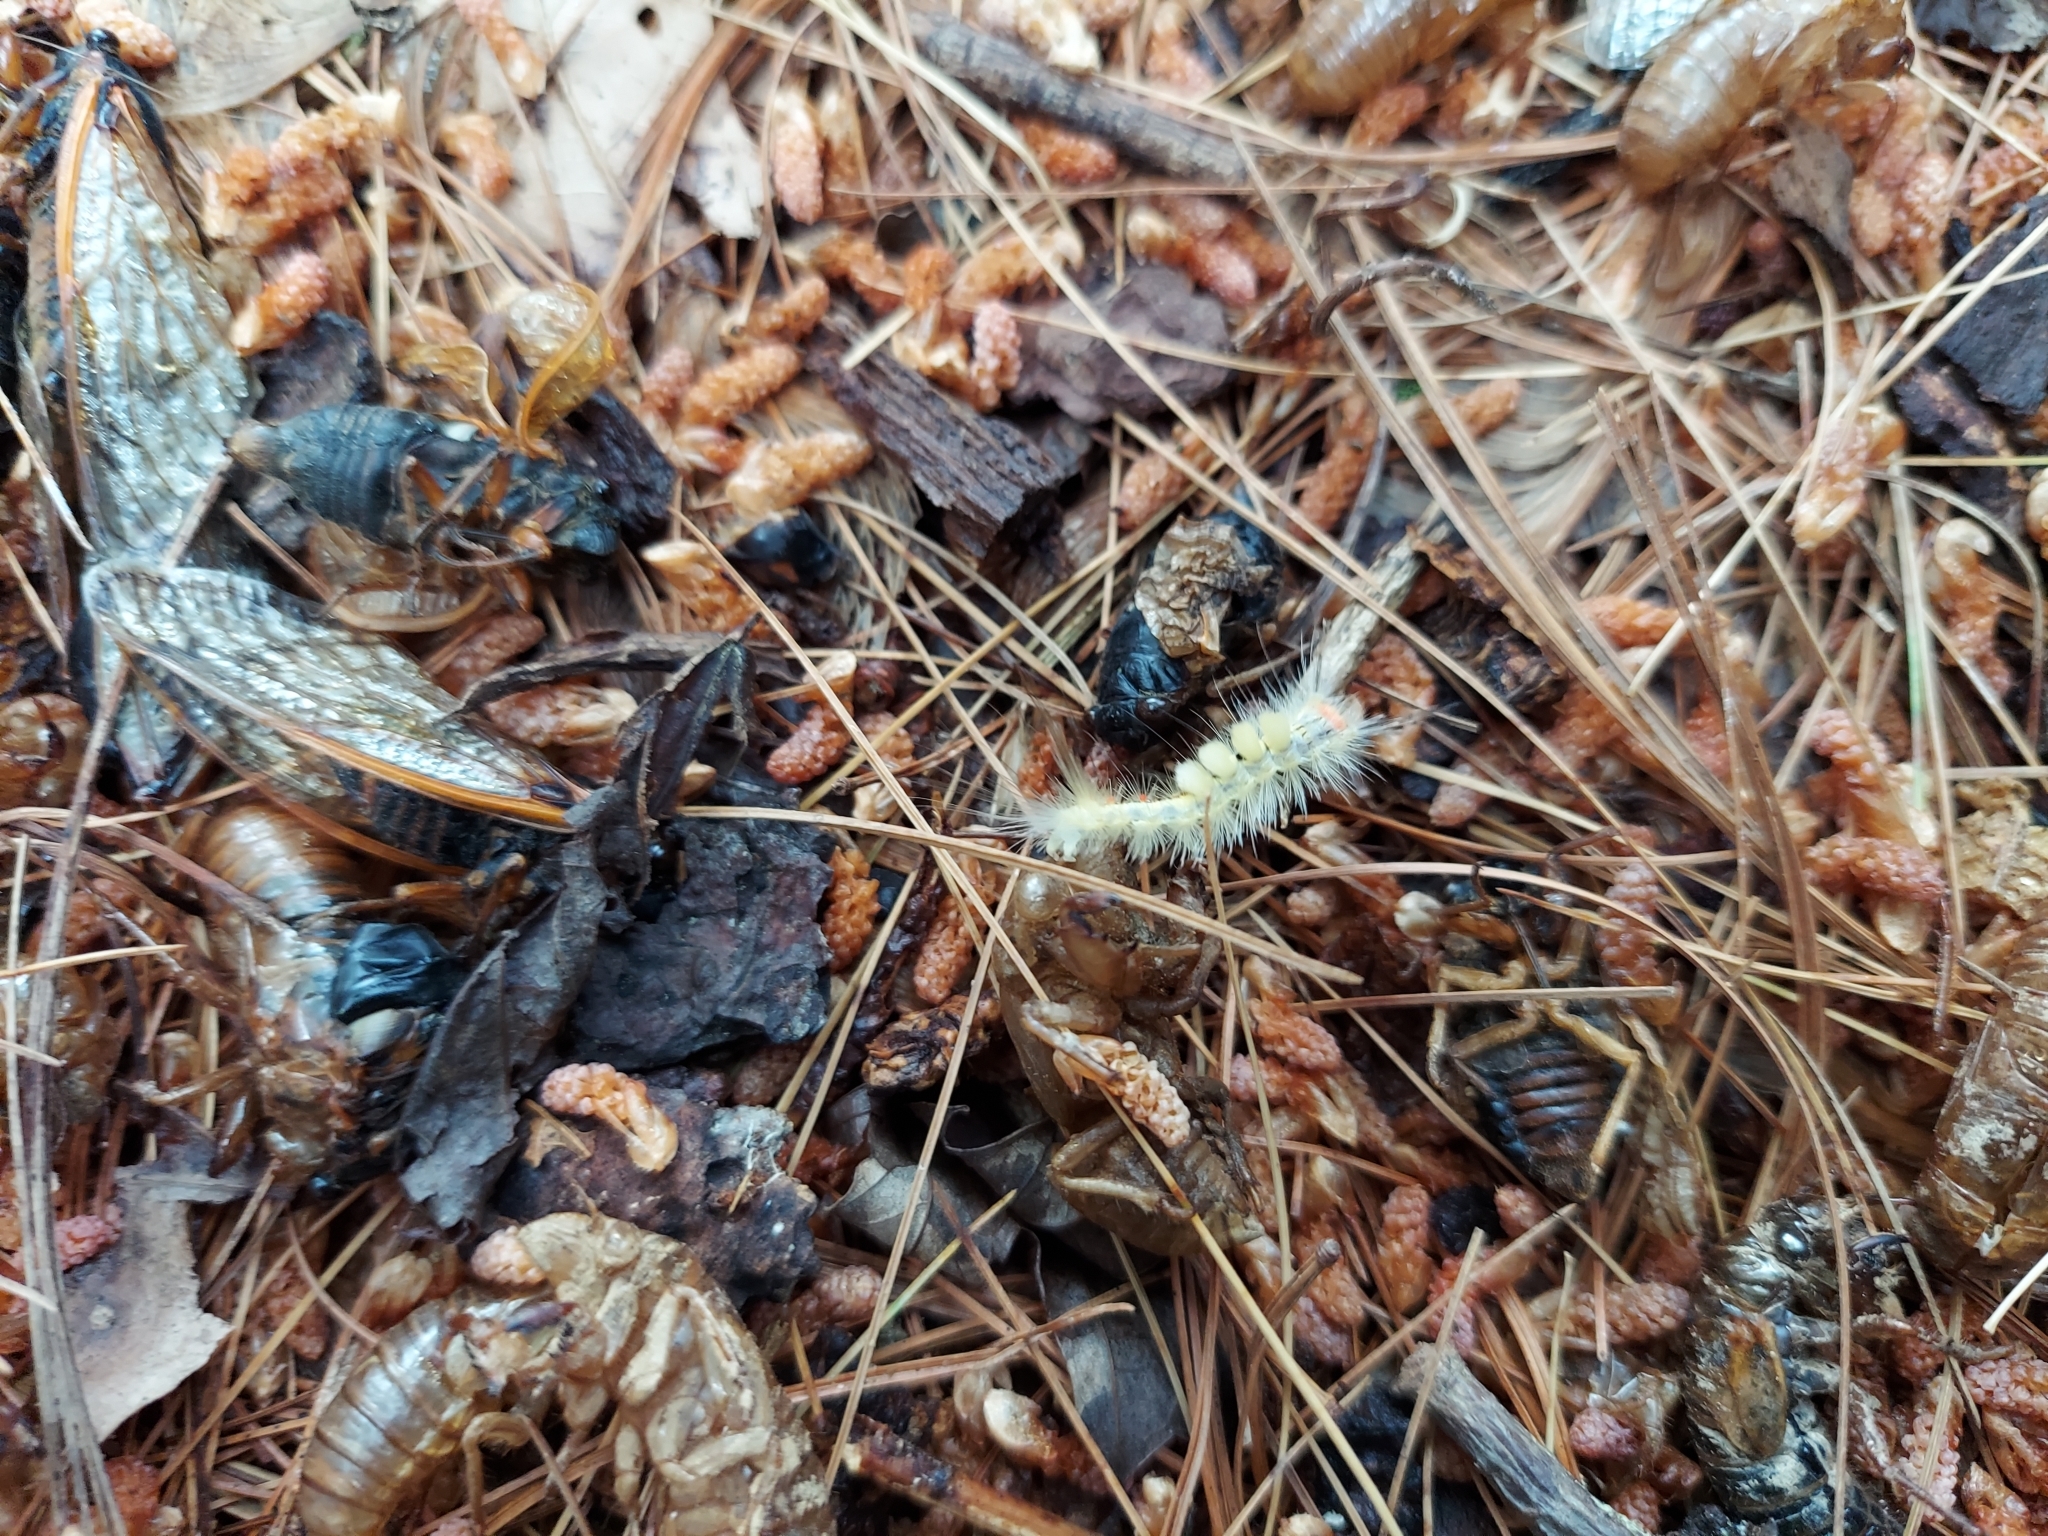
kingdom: Animalia
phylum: Arthropoda
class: Insecta
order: Lepidoptera
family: Erebidae
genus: Orgyia
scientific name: Orgyia leucostigma
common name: White-marked tussock moth
